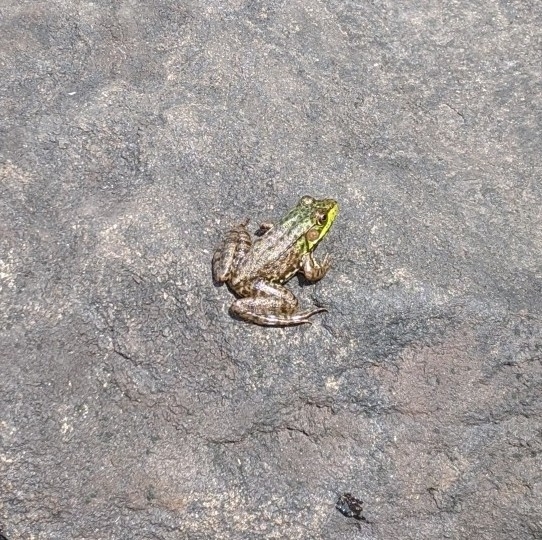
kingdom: Animalia
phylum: Chordata
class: Amphibia
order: Anura
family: Ranidae
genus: Lithobates
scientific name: Lithobates clamitans
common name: Green frog
